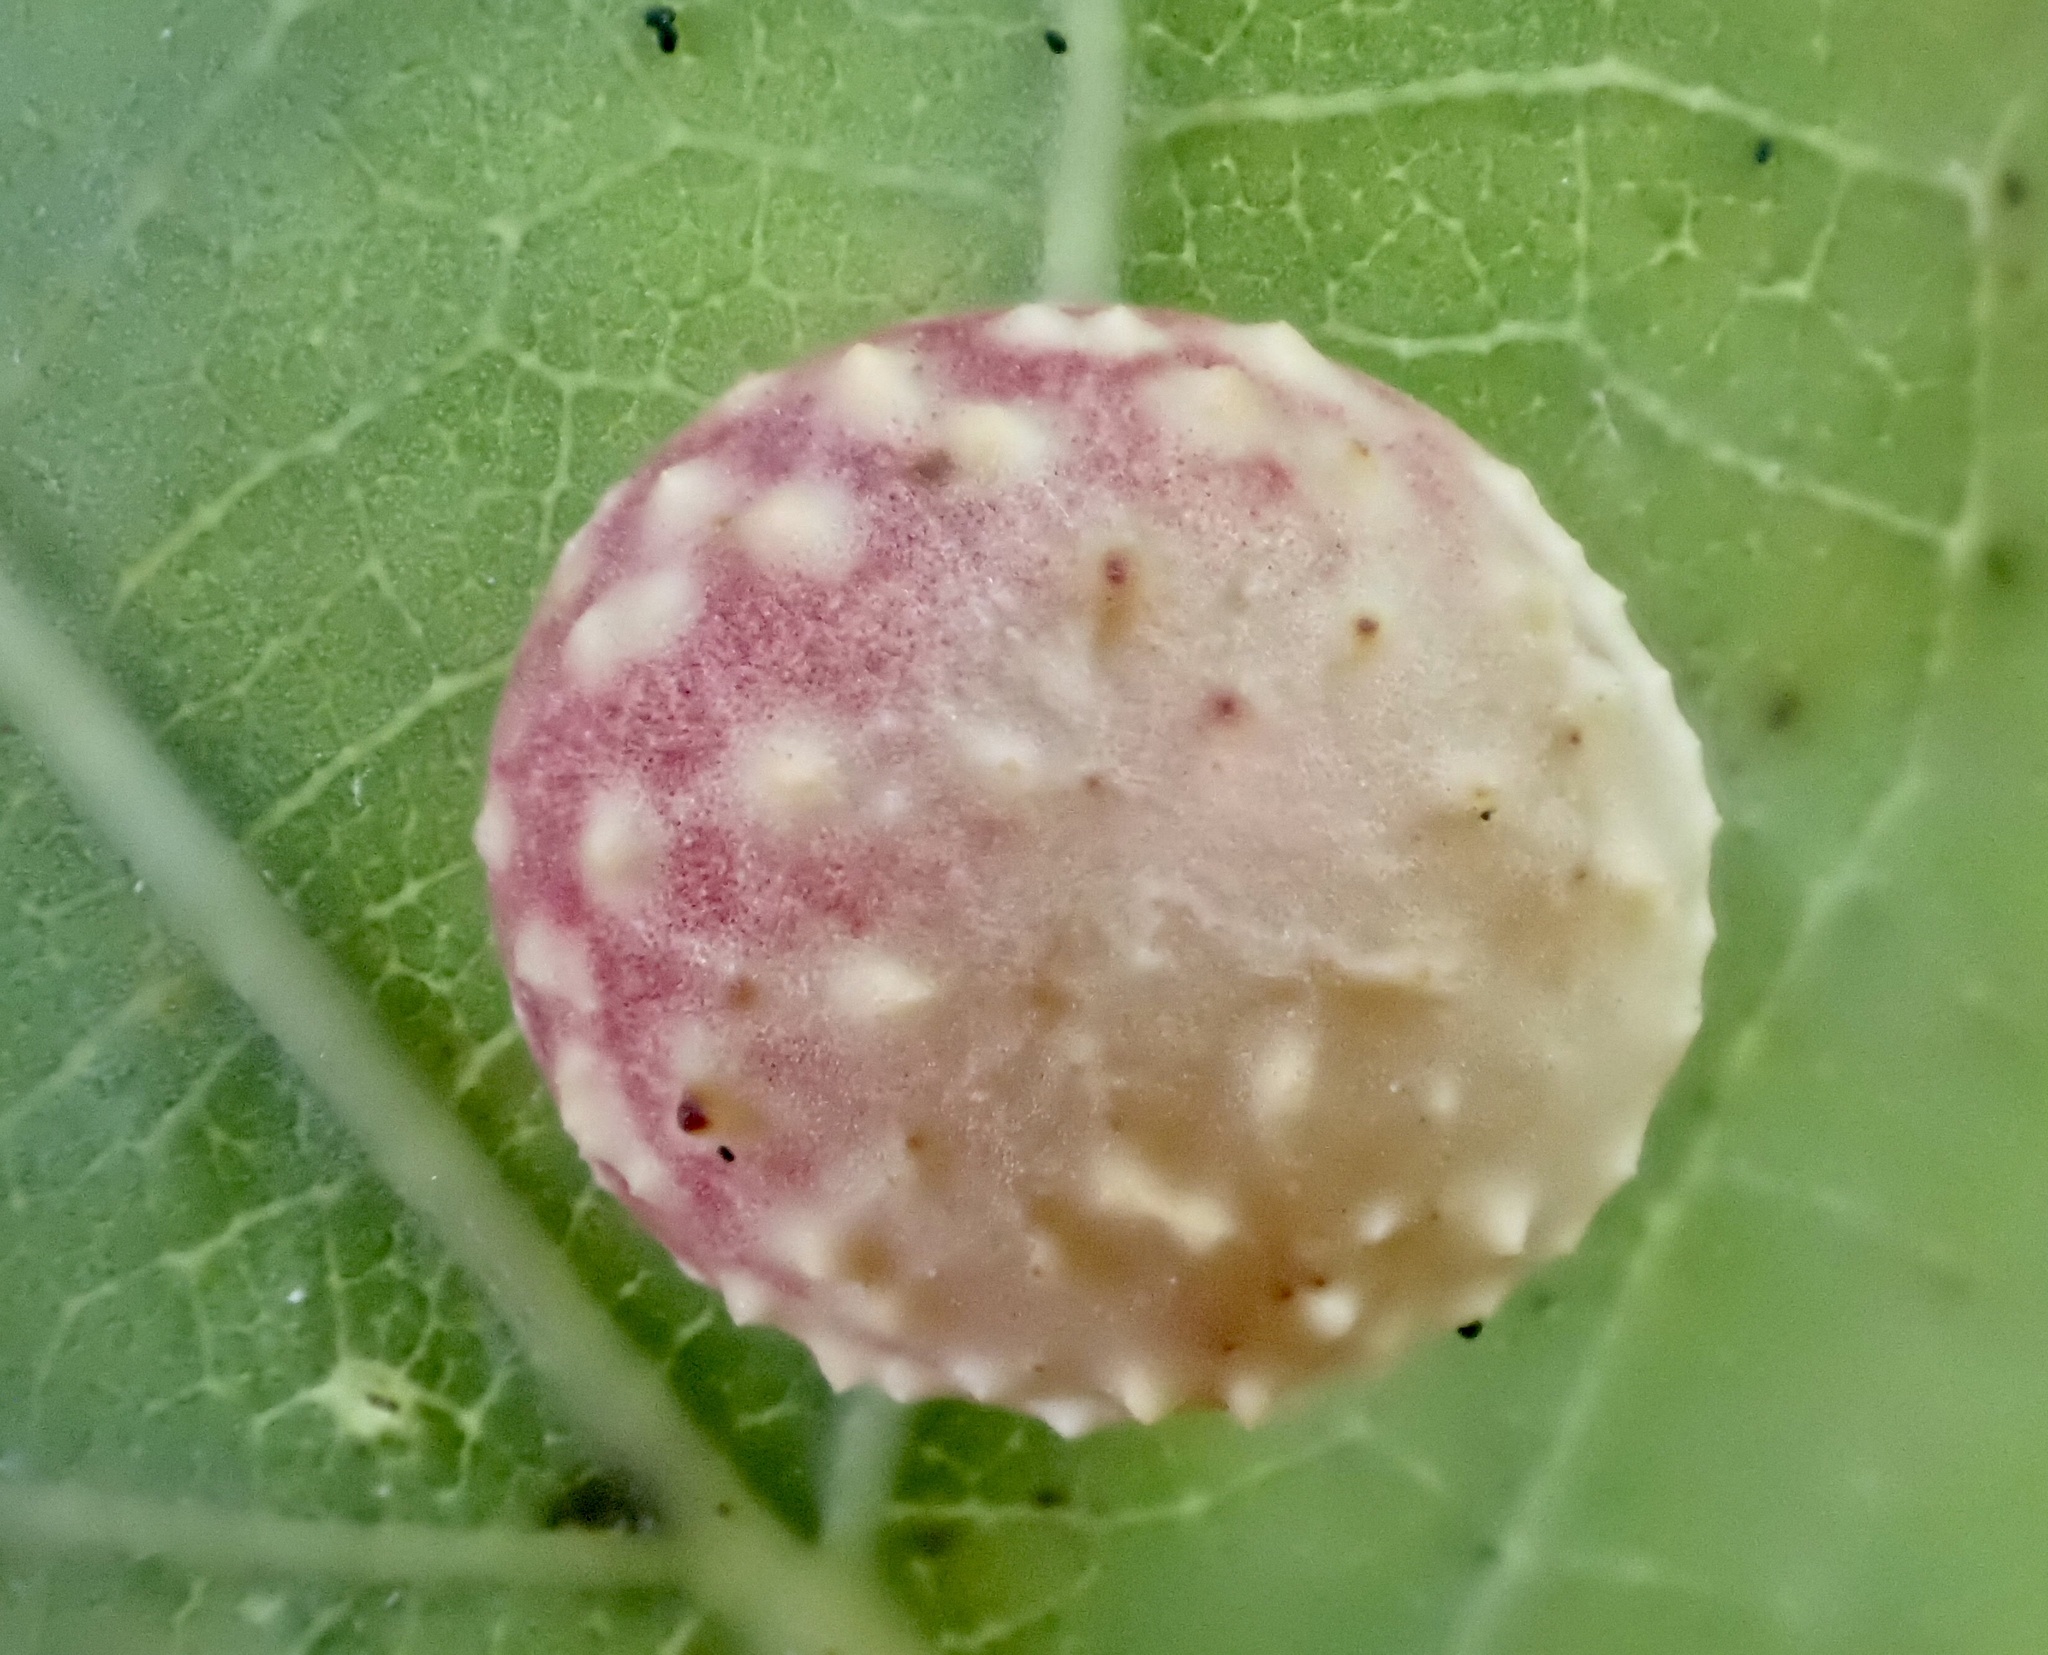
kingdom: Animalia
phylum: Arthropoda
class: Insecta
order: Hymenoptera
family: Cynipidae
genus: Cynips
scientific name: Cynips longiventris
